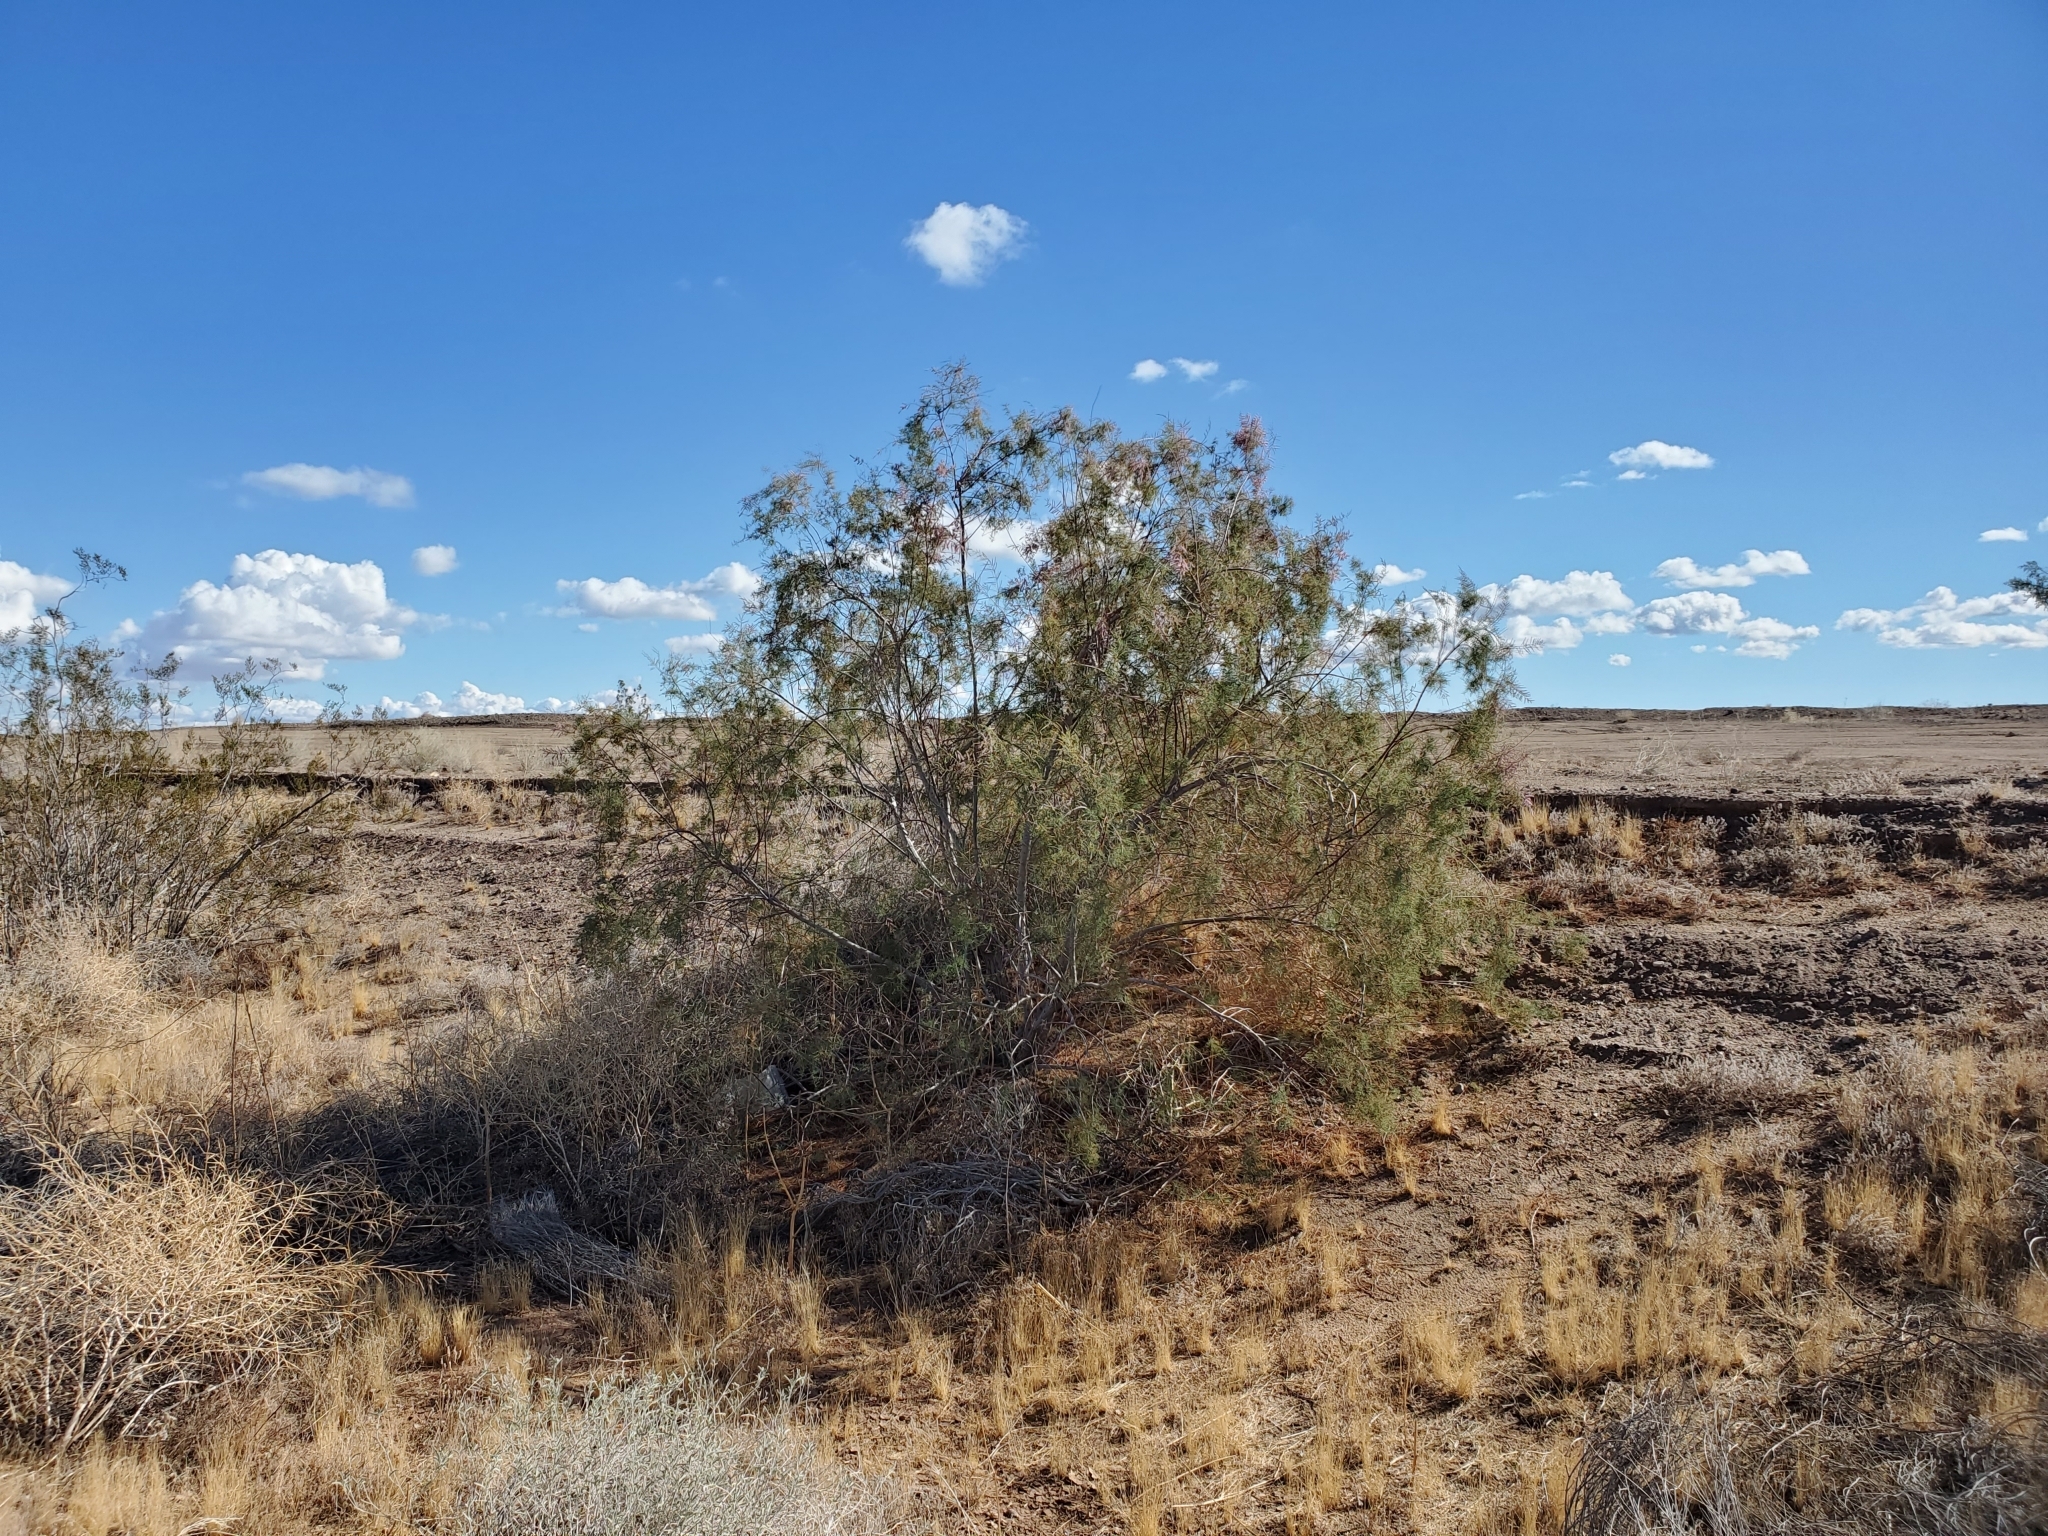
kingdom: Plantae
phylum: Tracheophyta
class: Magnoliopsida
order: Caryophyllales
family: Tamaricaceae
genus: Tamarix
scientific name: Tamarix ramosissima
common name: Pink tamarisk
